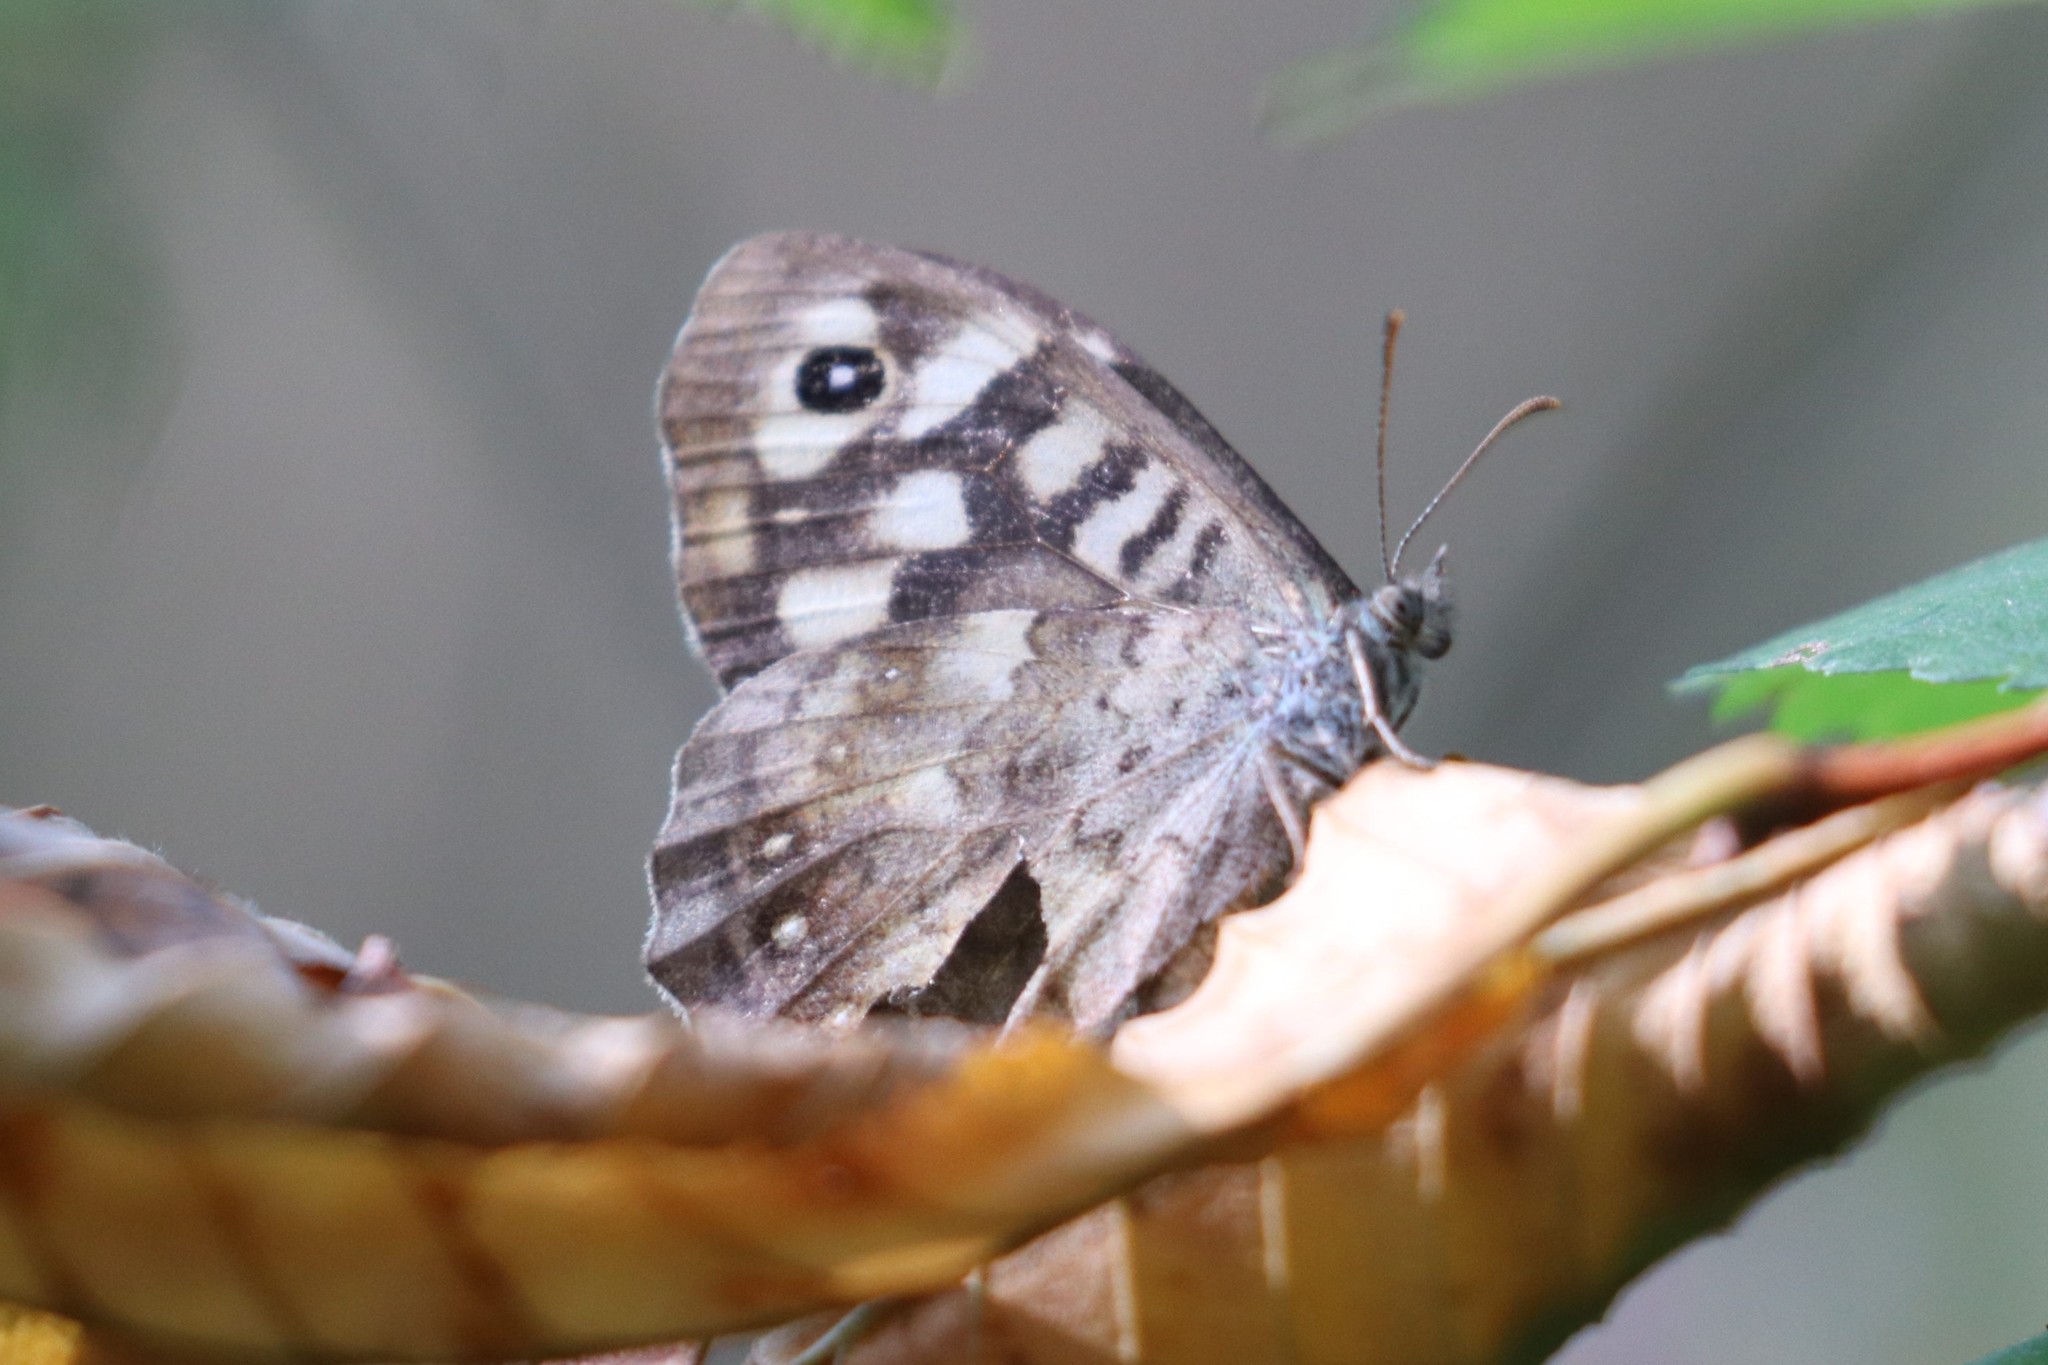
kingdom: Animalia
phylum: Arthropoda
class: Insecta
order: Lepidoptera
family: Nymphalidae
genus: Pararge
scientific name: Pararge aegeria
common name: Speckled wood
